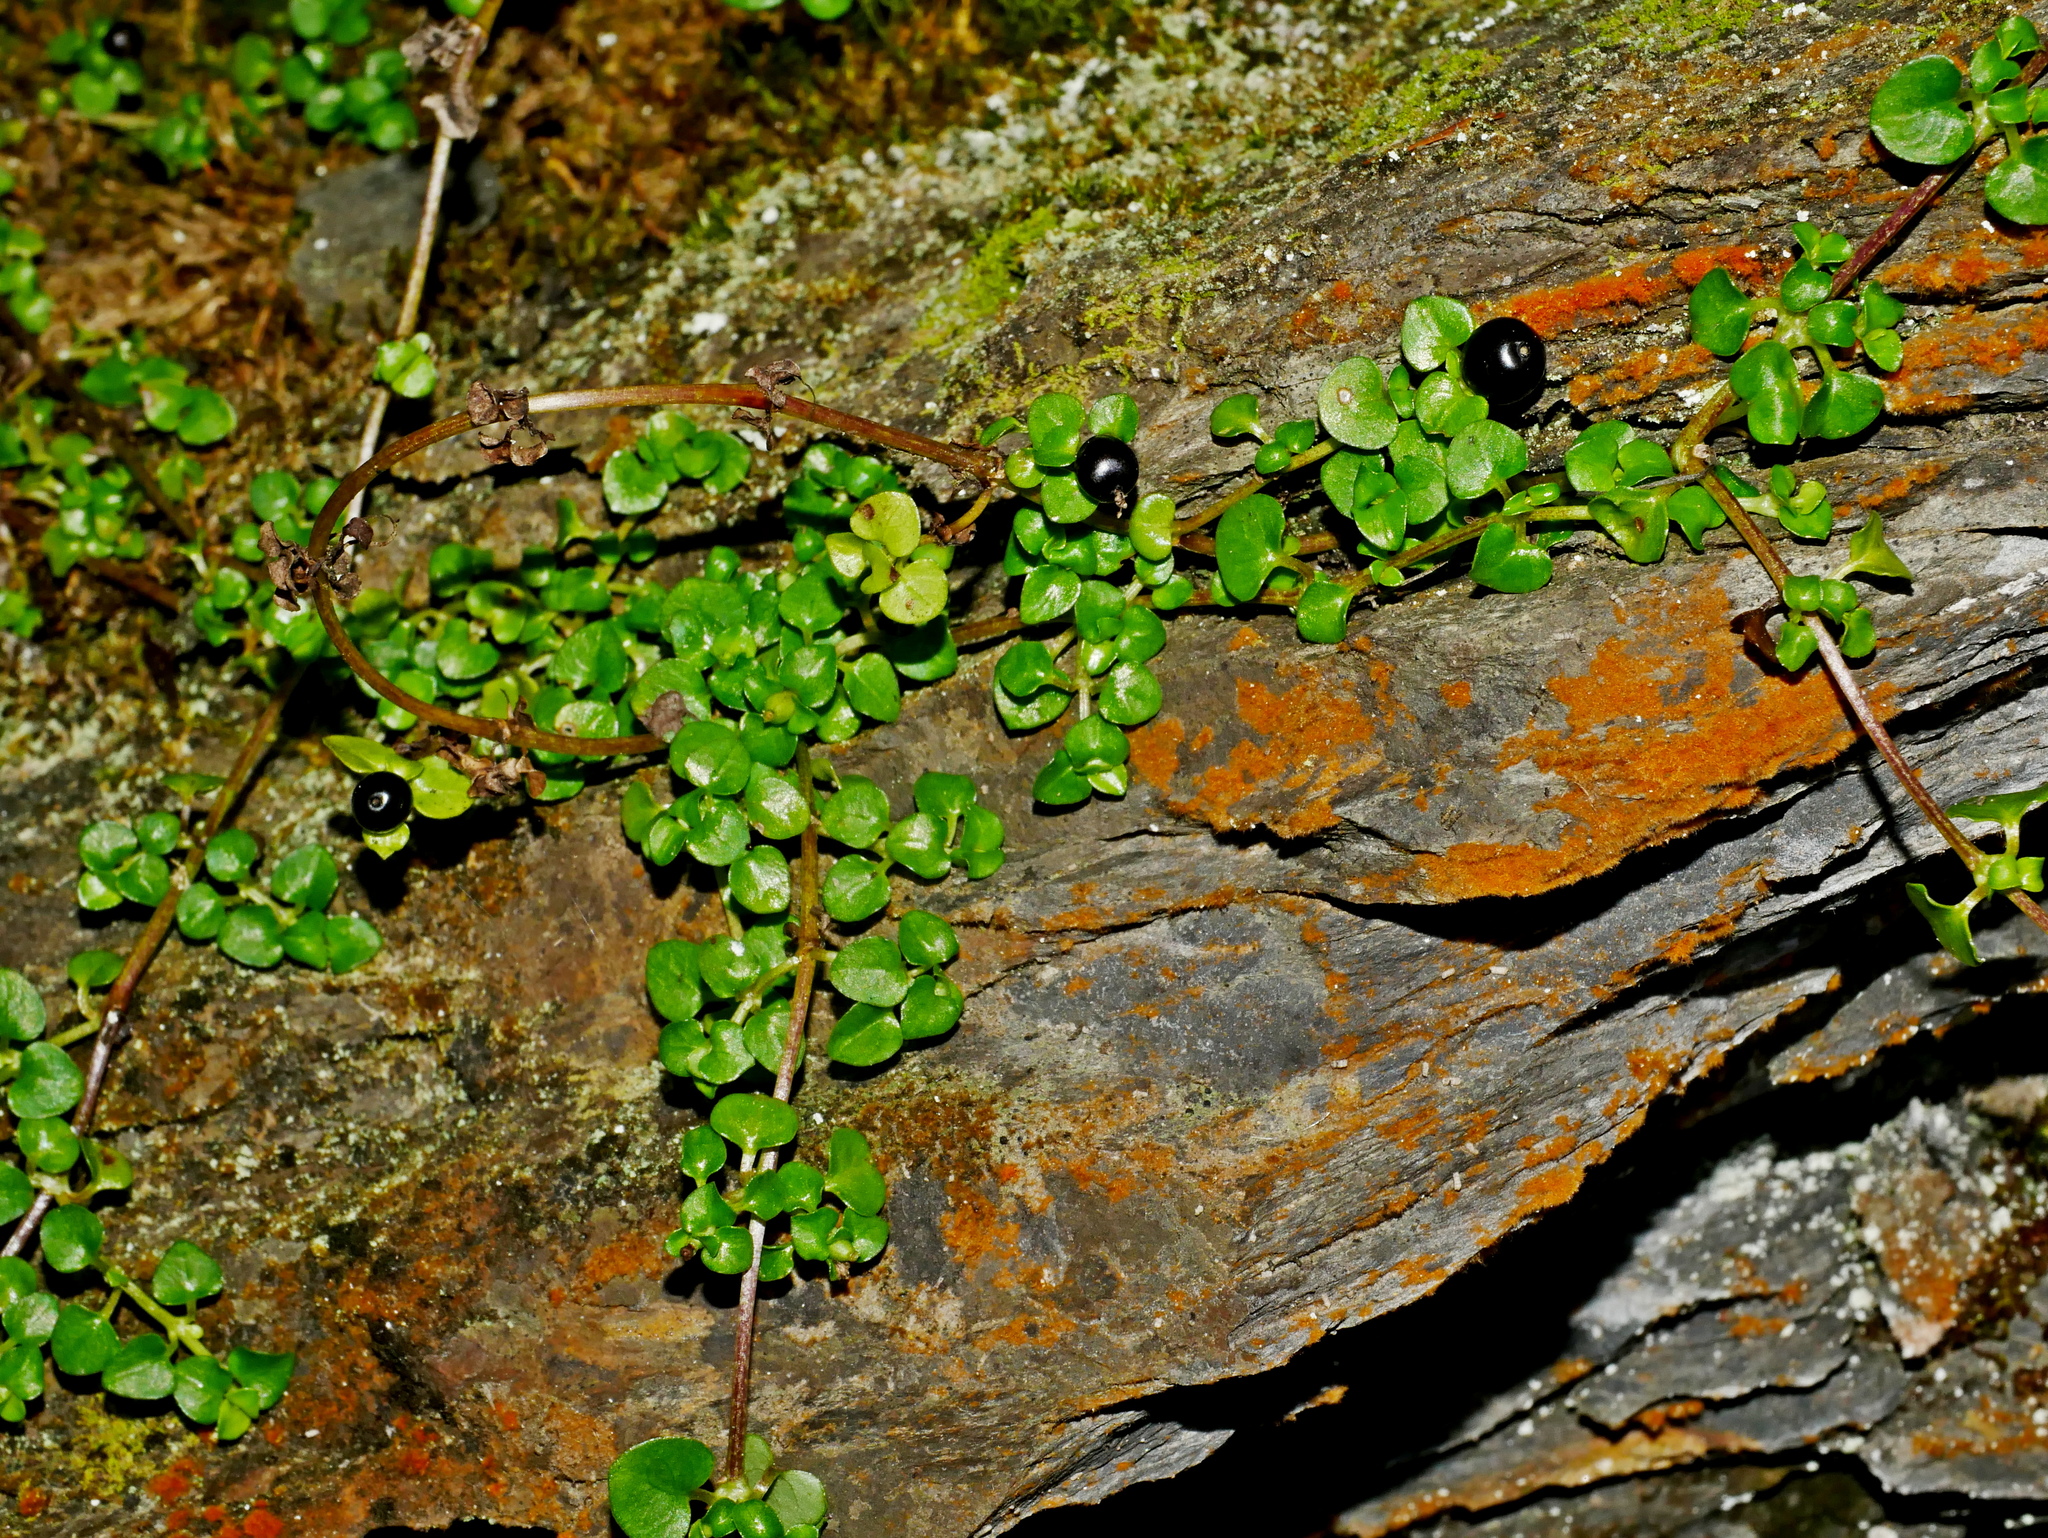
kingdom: Plantae
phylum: Tracheophyta
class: Magnoliopsida
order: Gentianales
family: Rubiaceae
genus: Nertera
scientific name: Nertera nigricarpa
